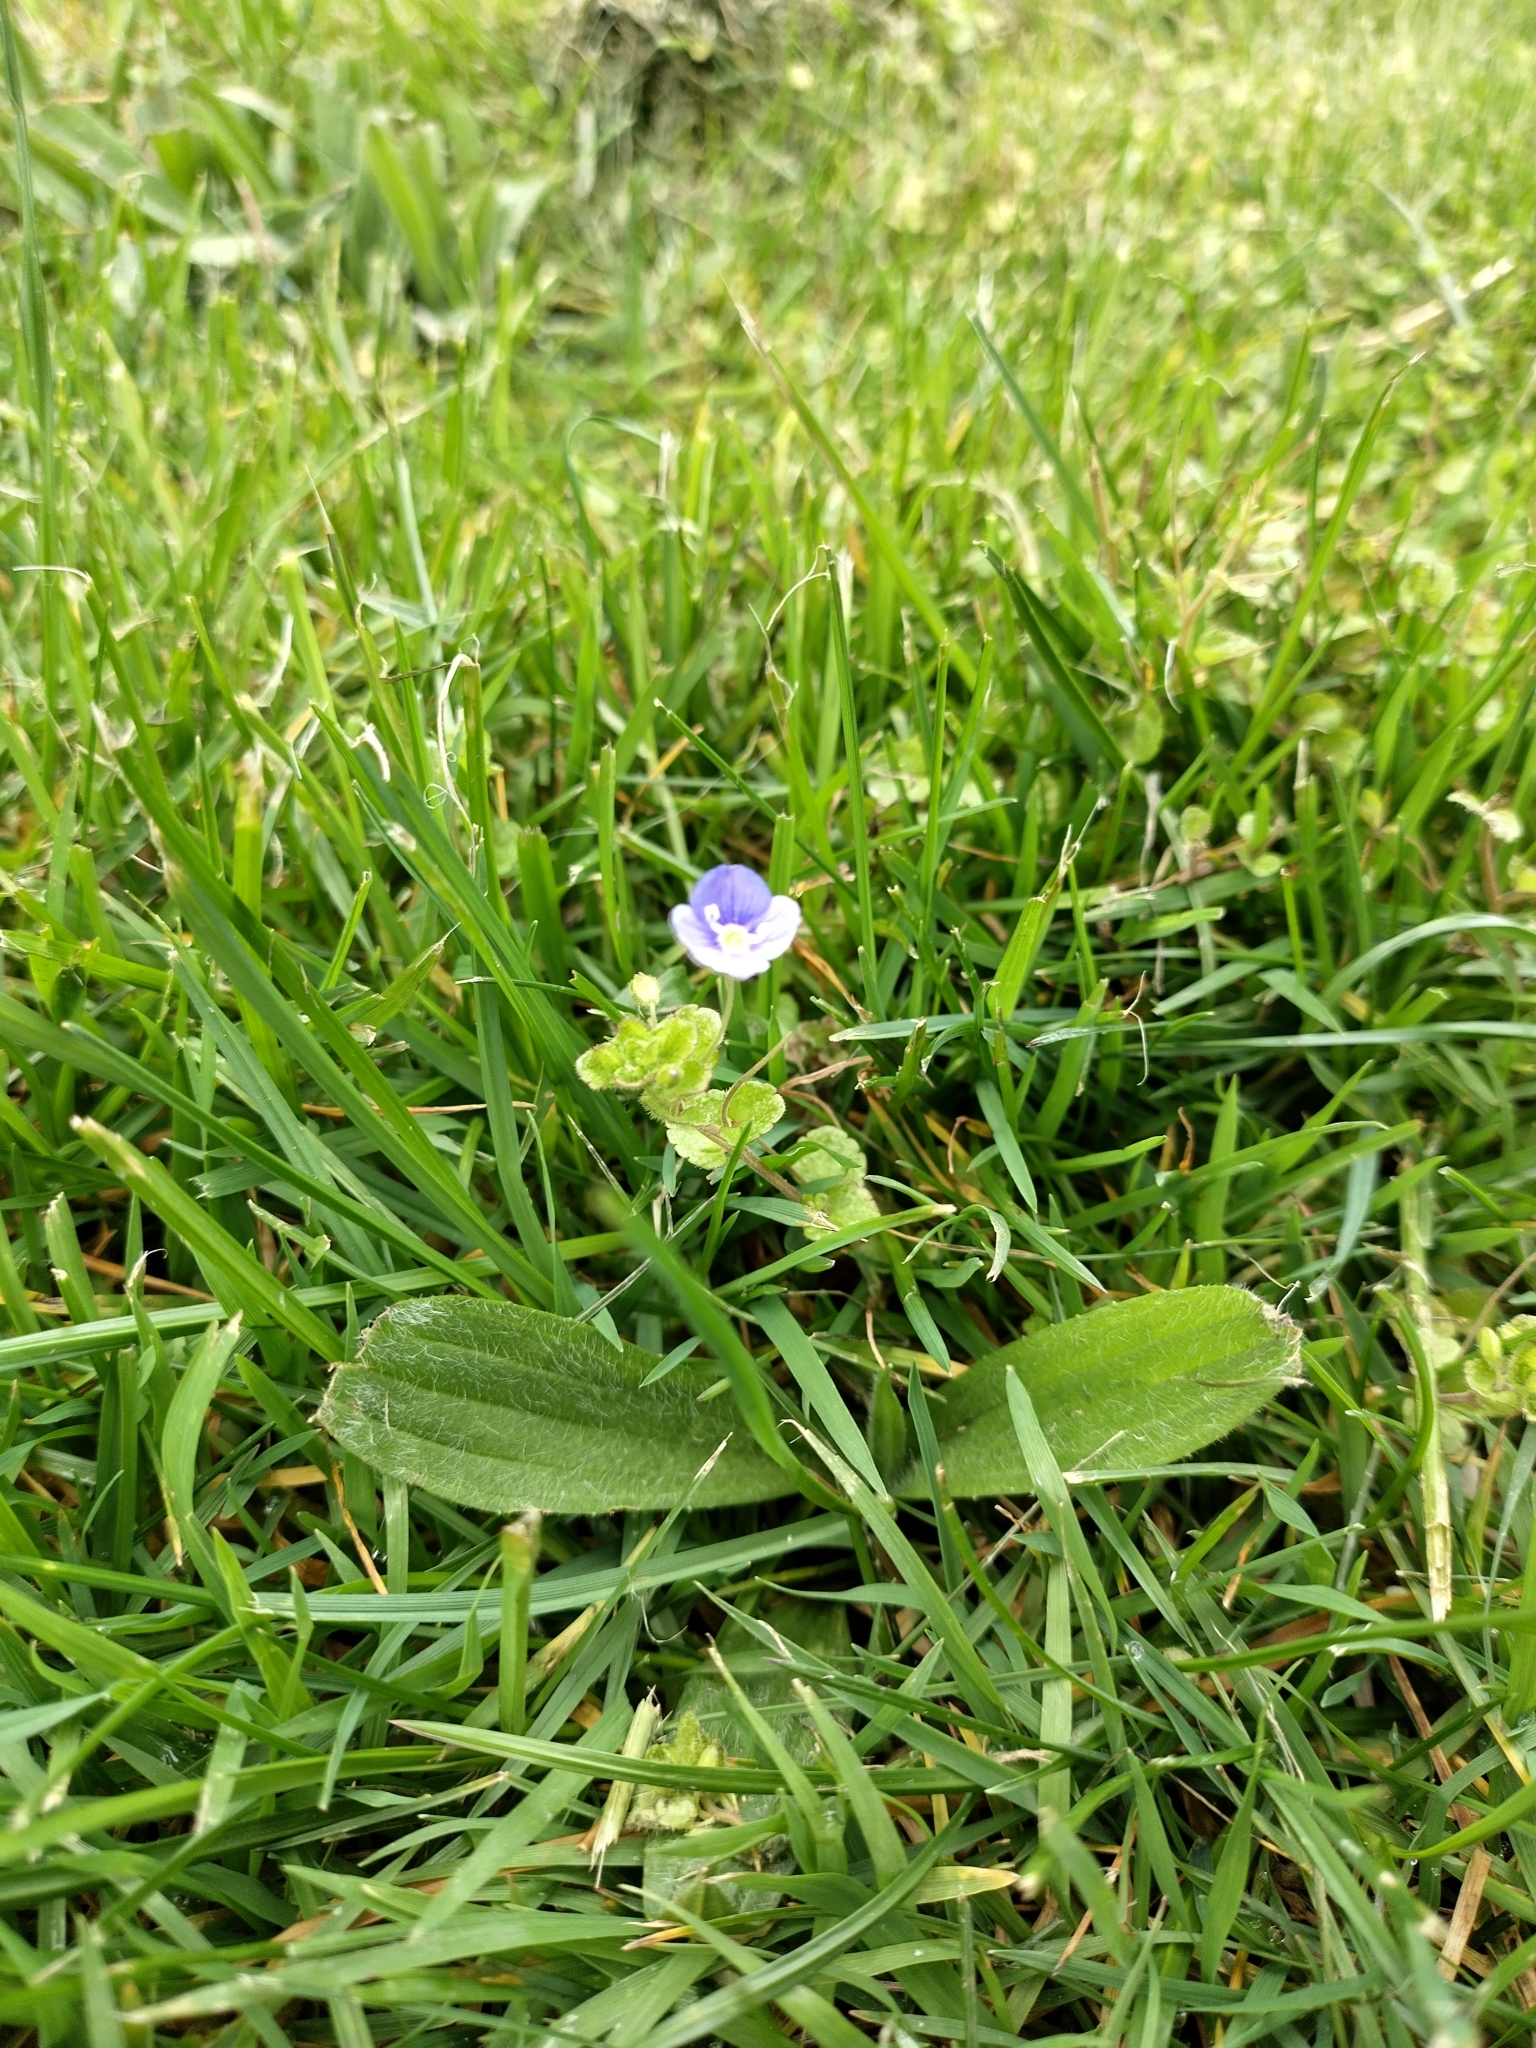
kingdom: Plantae
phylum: Tracheophyta
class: Magnoliopsida
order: Lamiales
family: Plantaginaceae
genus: Veronica
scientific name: Veronica filiformis
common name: Slender speedwell
